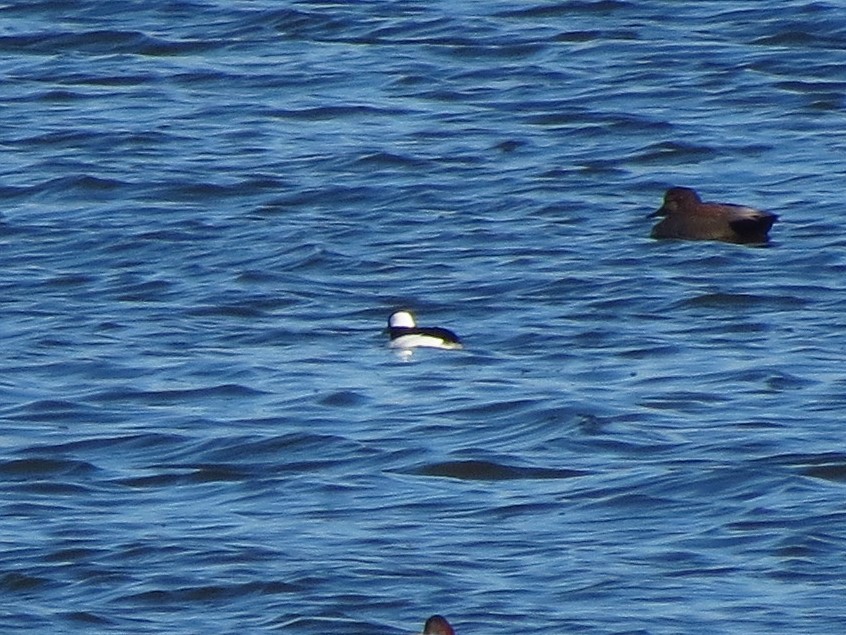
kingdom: Animalia
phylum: Chordata
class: Aves
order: Anseriformes
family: Anatidae
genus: Bucephala
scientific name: Bucephala albeola
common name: Bufflehead
